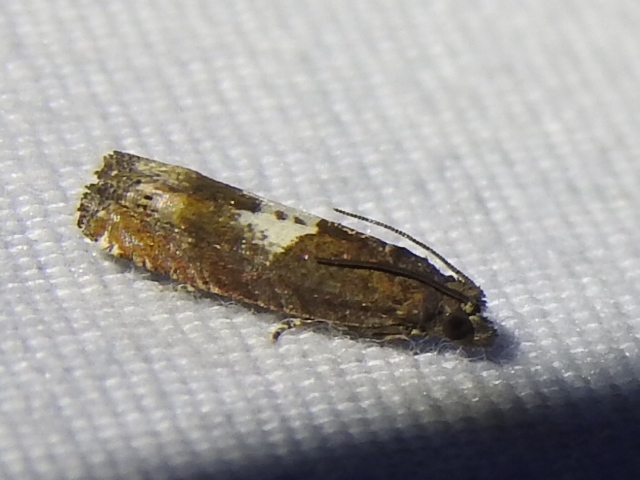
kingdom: Animalia
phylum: Arthropoda
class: Insecta
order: Lepidoptera
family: Tortricidae
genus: Eucosma
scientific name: Eucosma parmatana
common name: Aster eucosma moth
